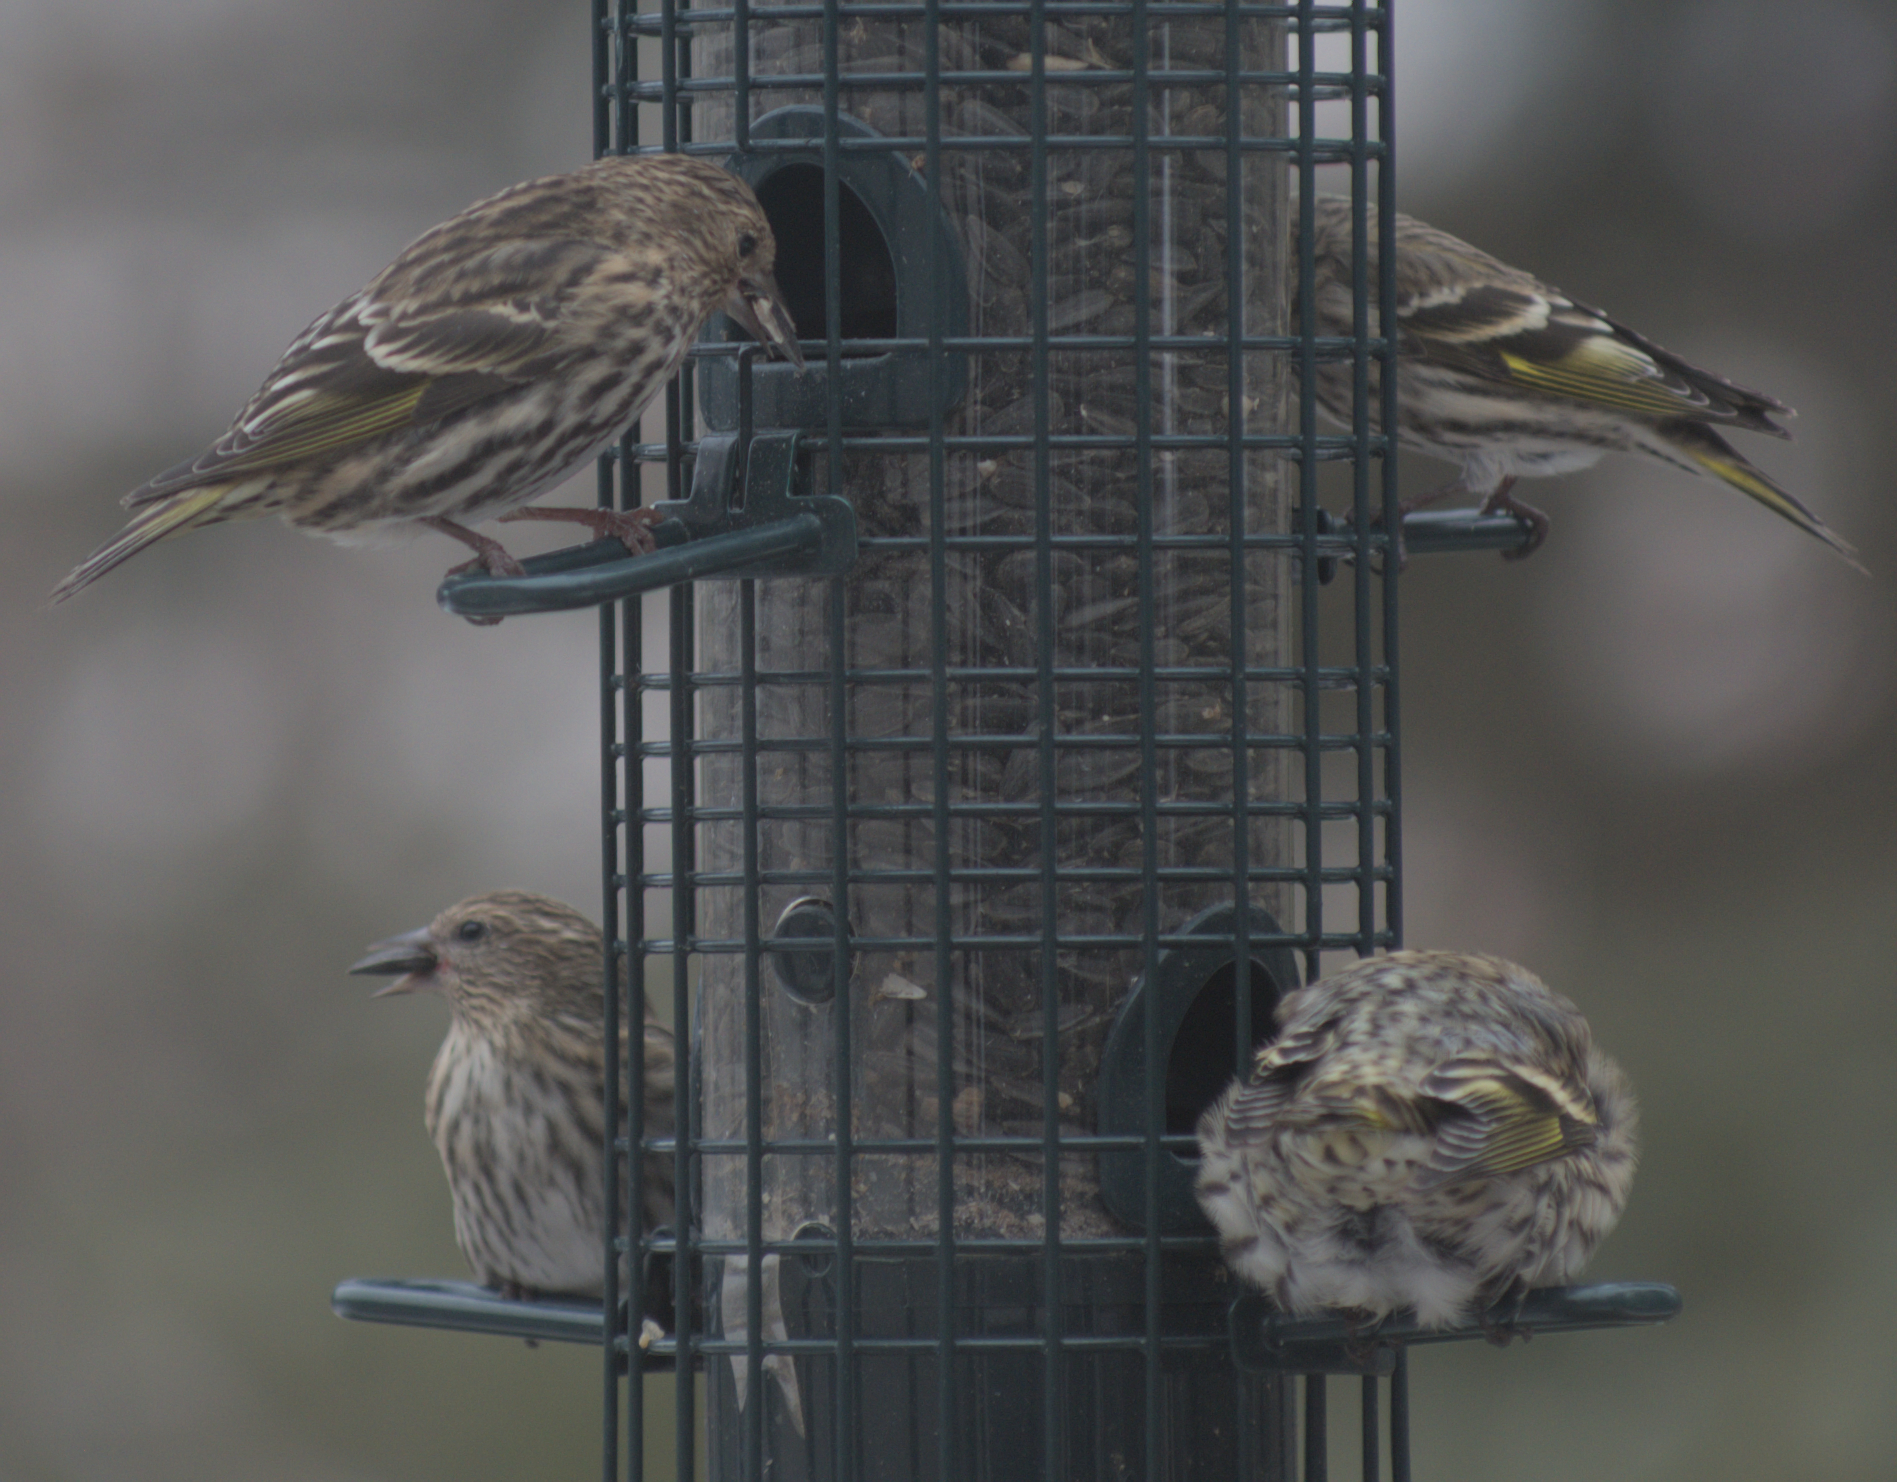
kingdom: Animalia
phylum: Chordata
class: Aves
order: Passeriformes
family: Fringillidae
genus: Spinus
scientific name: Spinus pinus
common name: Pine siskin
